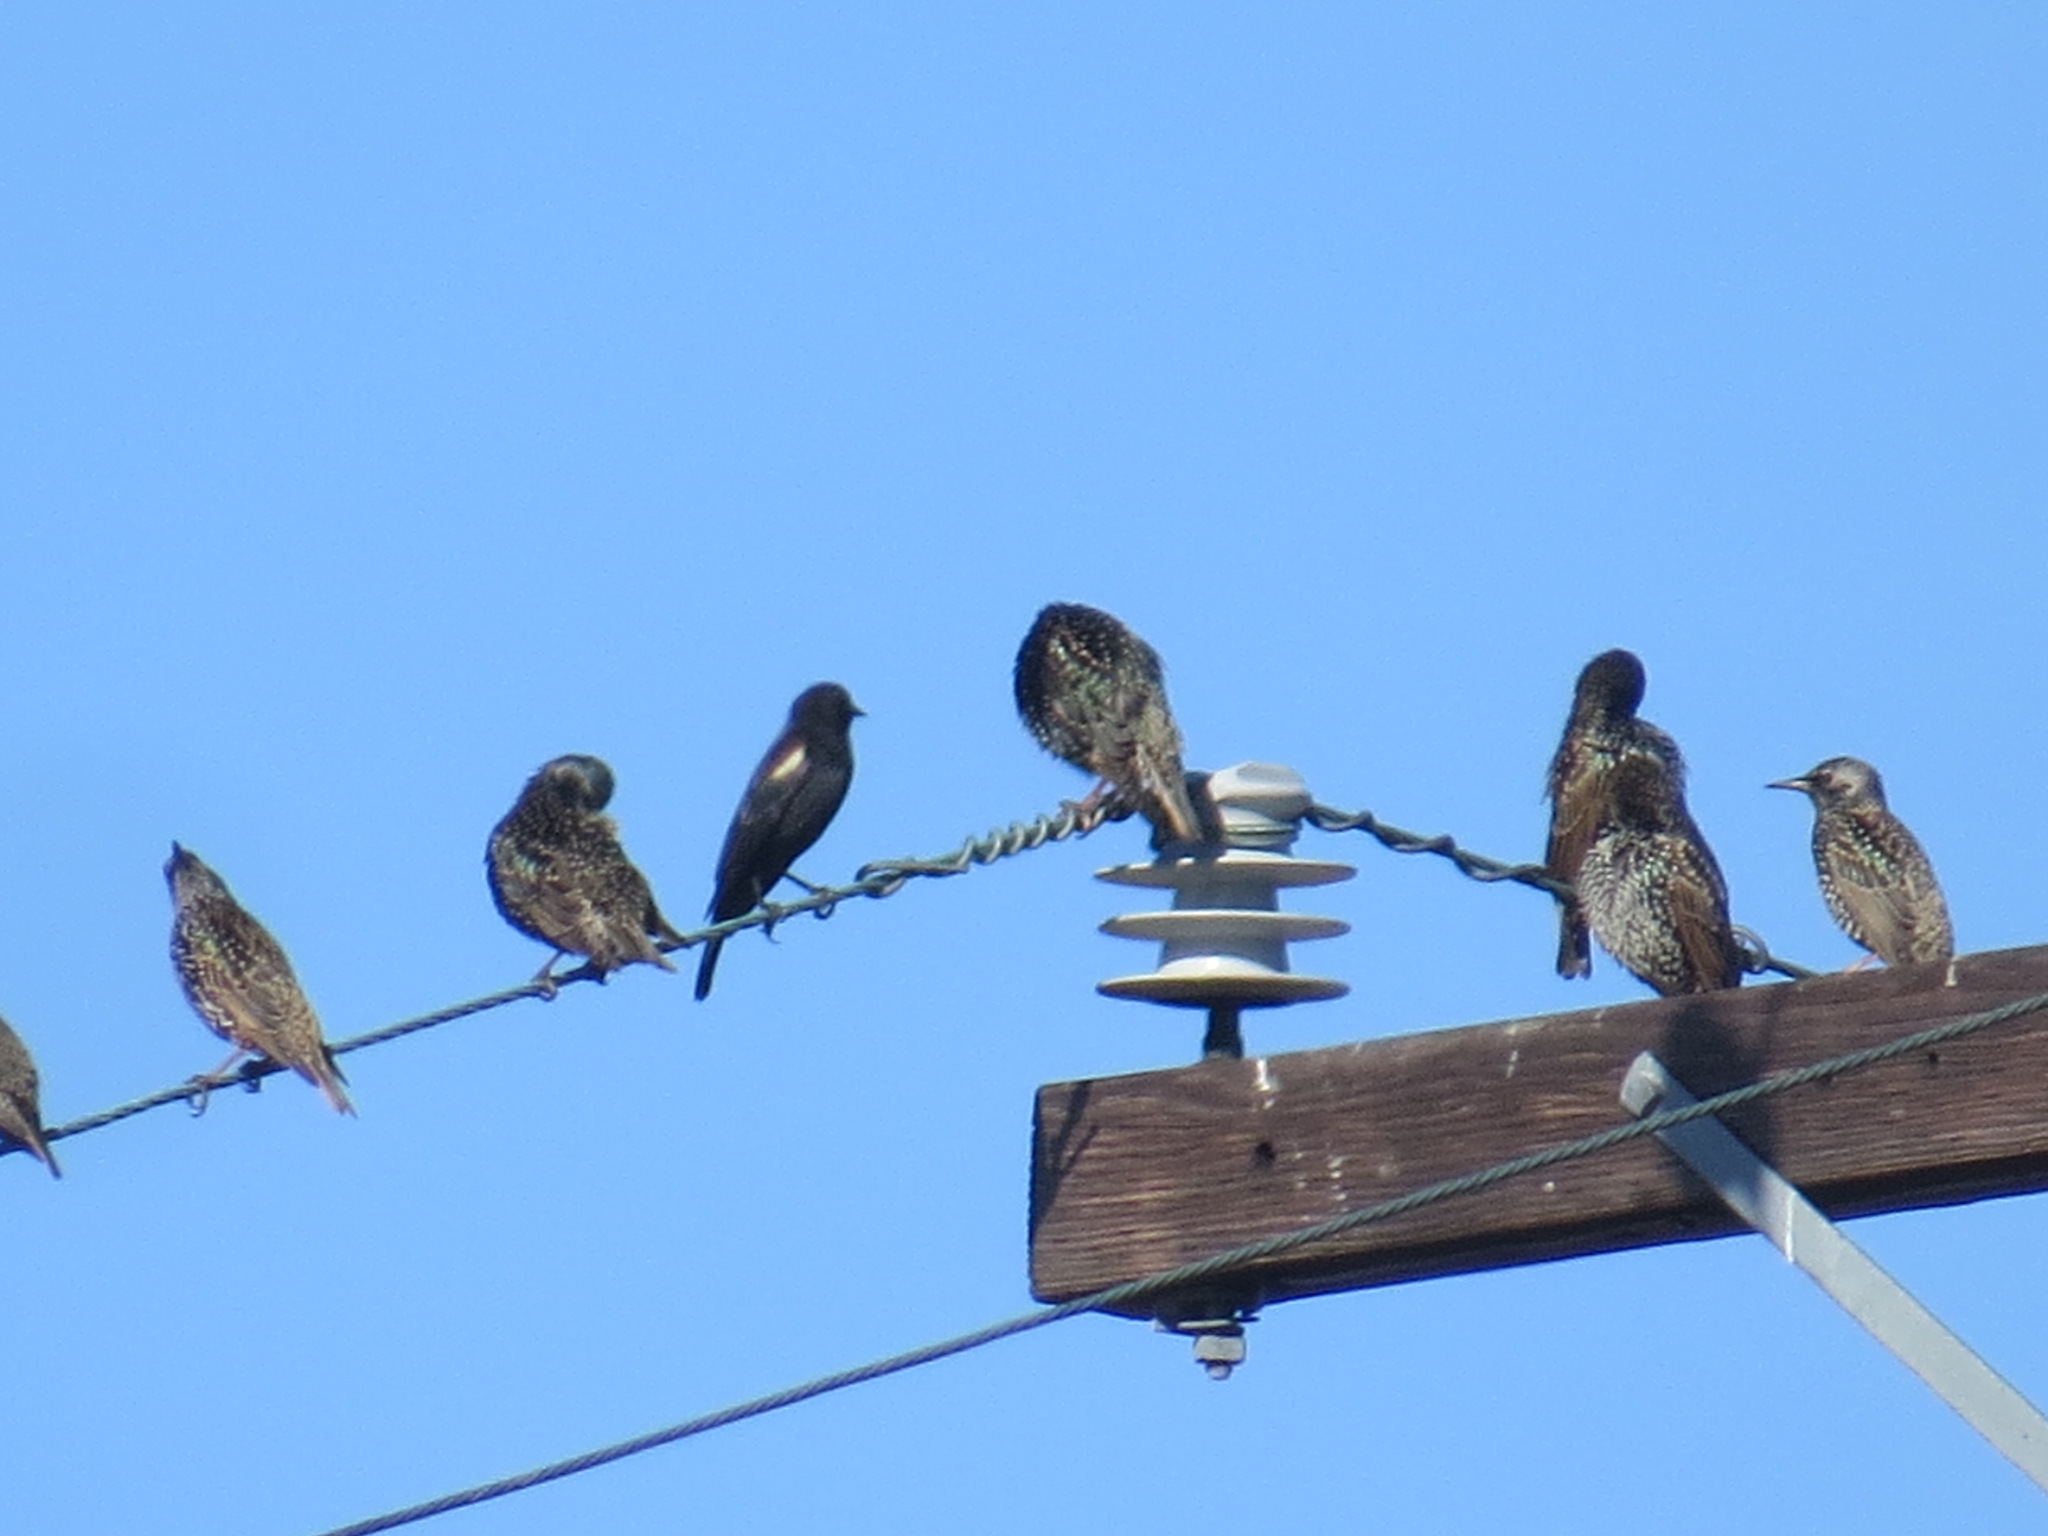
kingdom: Animalia
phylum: Chordata
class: Aves
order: Passeriformes
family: Icteridae
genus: Agelaius
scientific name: Agelaius tricolor
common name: Tricolored blackbird
